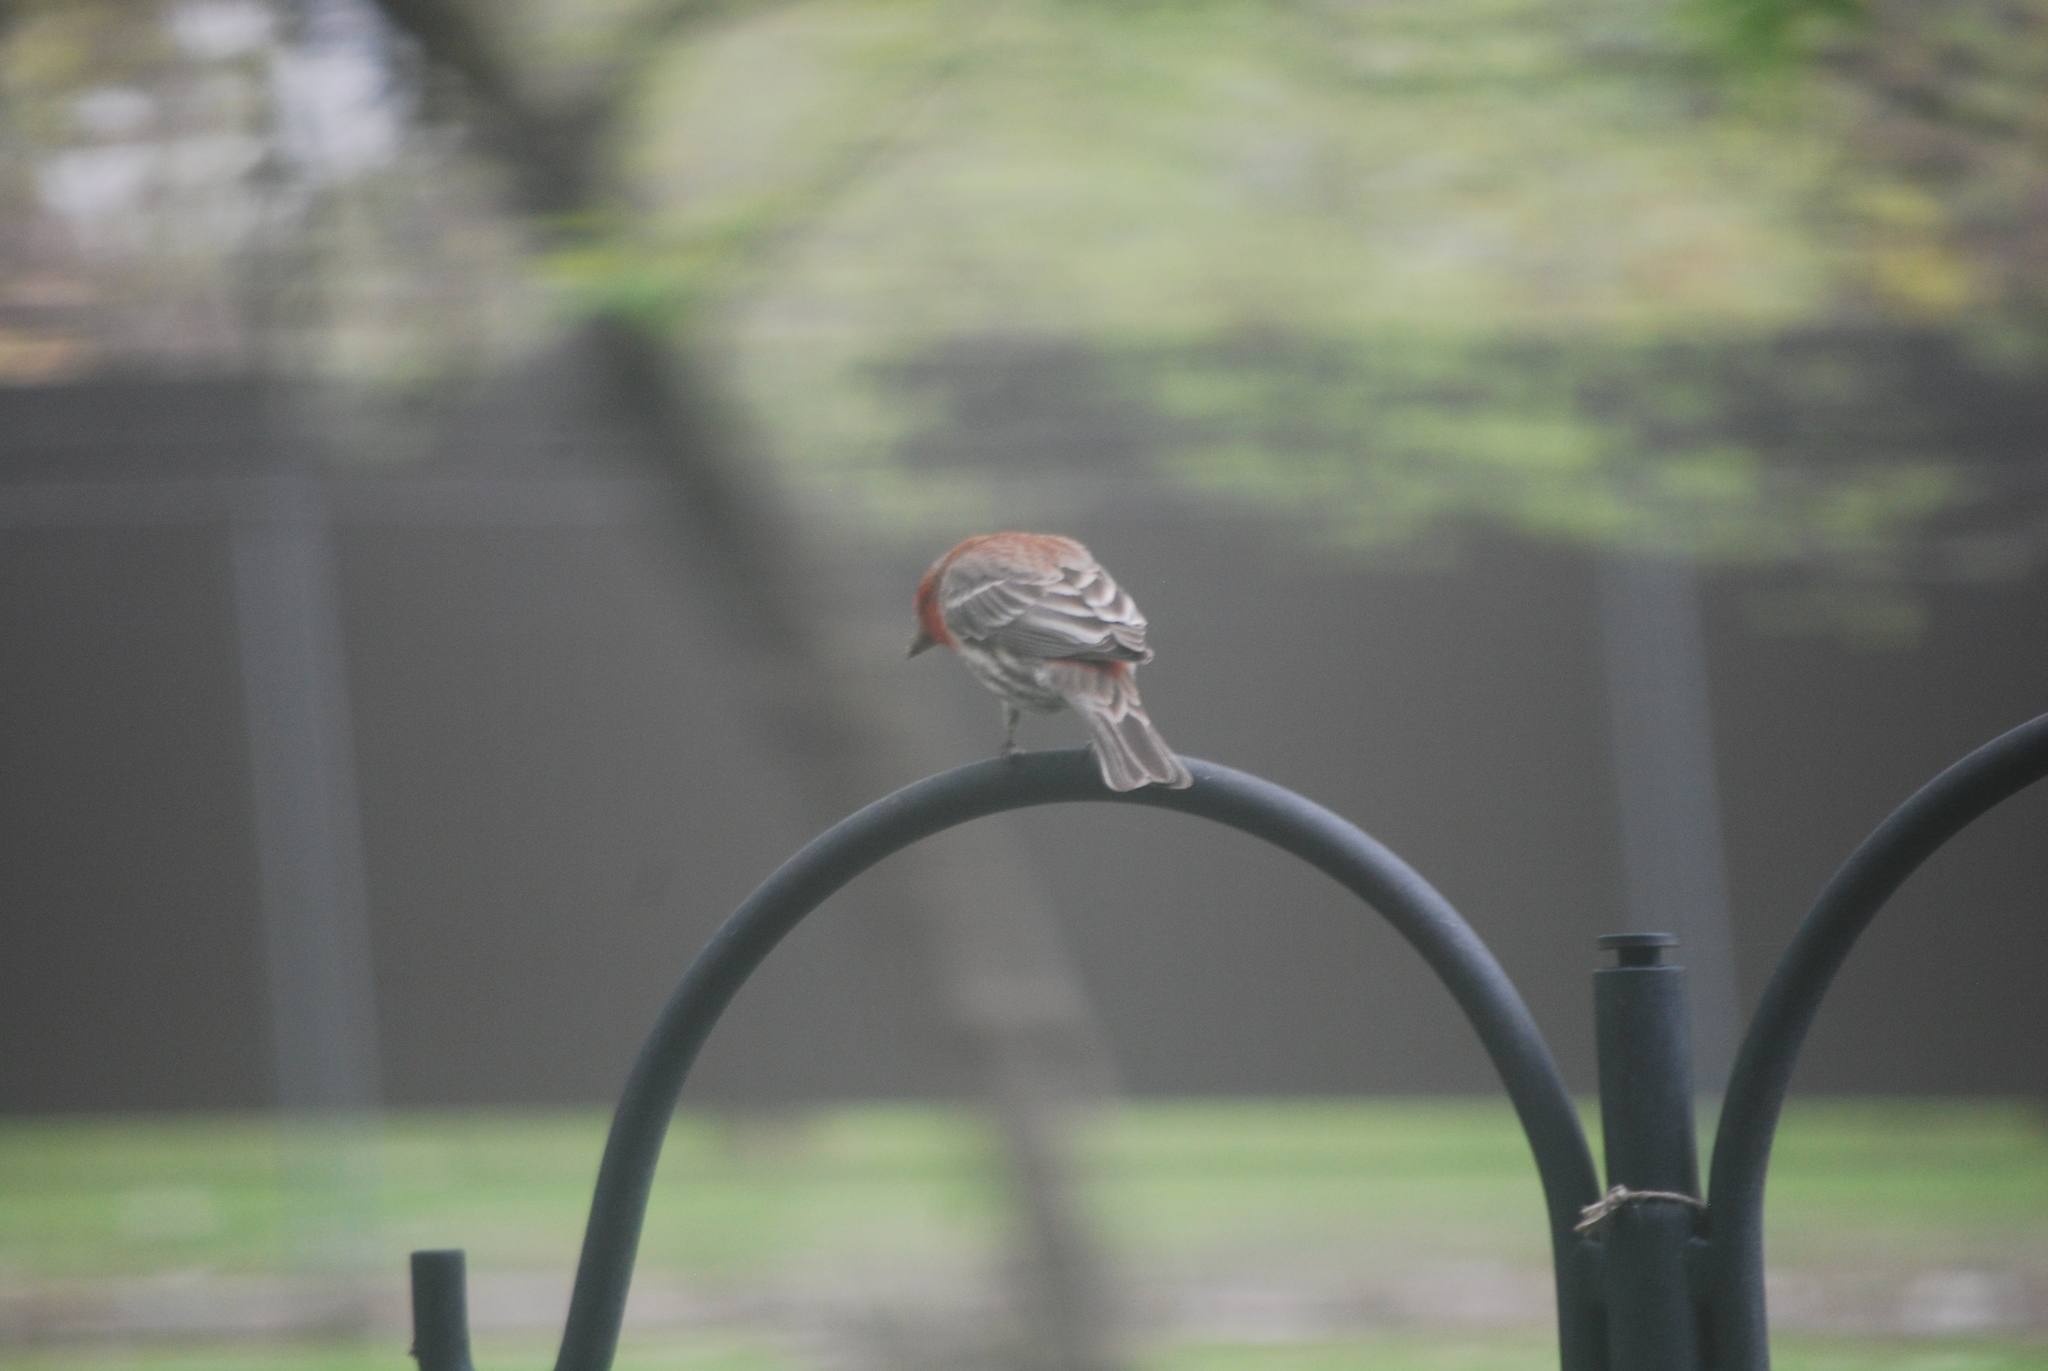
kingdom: Animalia
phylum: Chordata
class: Aves
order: Passeriformes
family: Fringillidae
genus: Haemorhous
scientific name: Haemorhous mexicanus
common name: House finch
